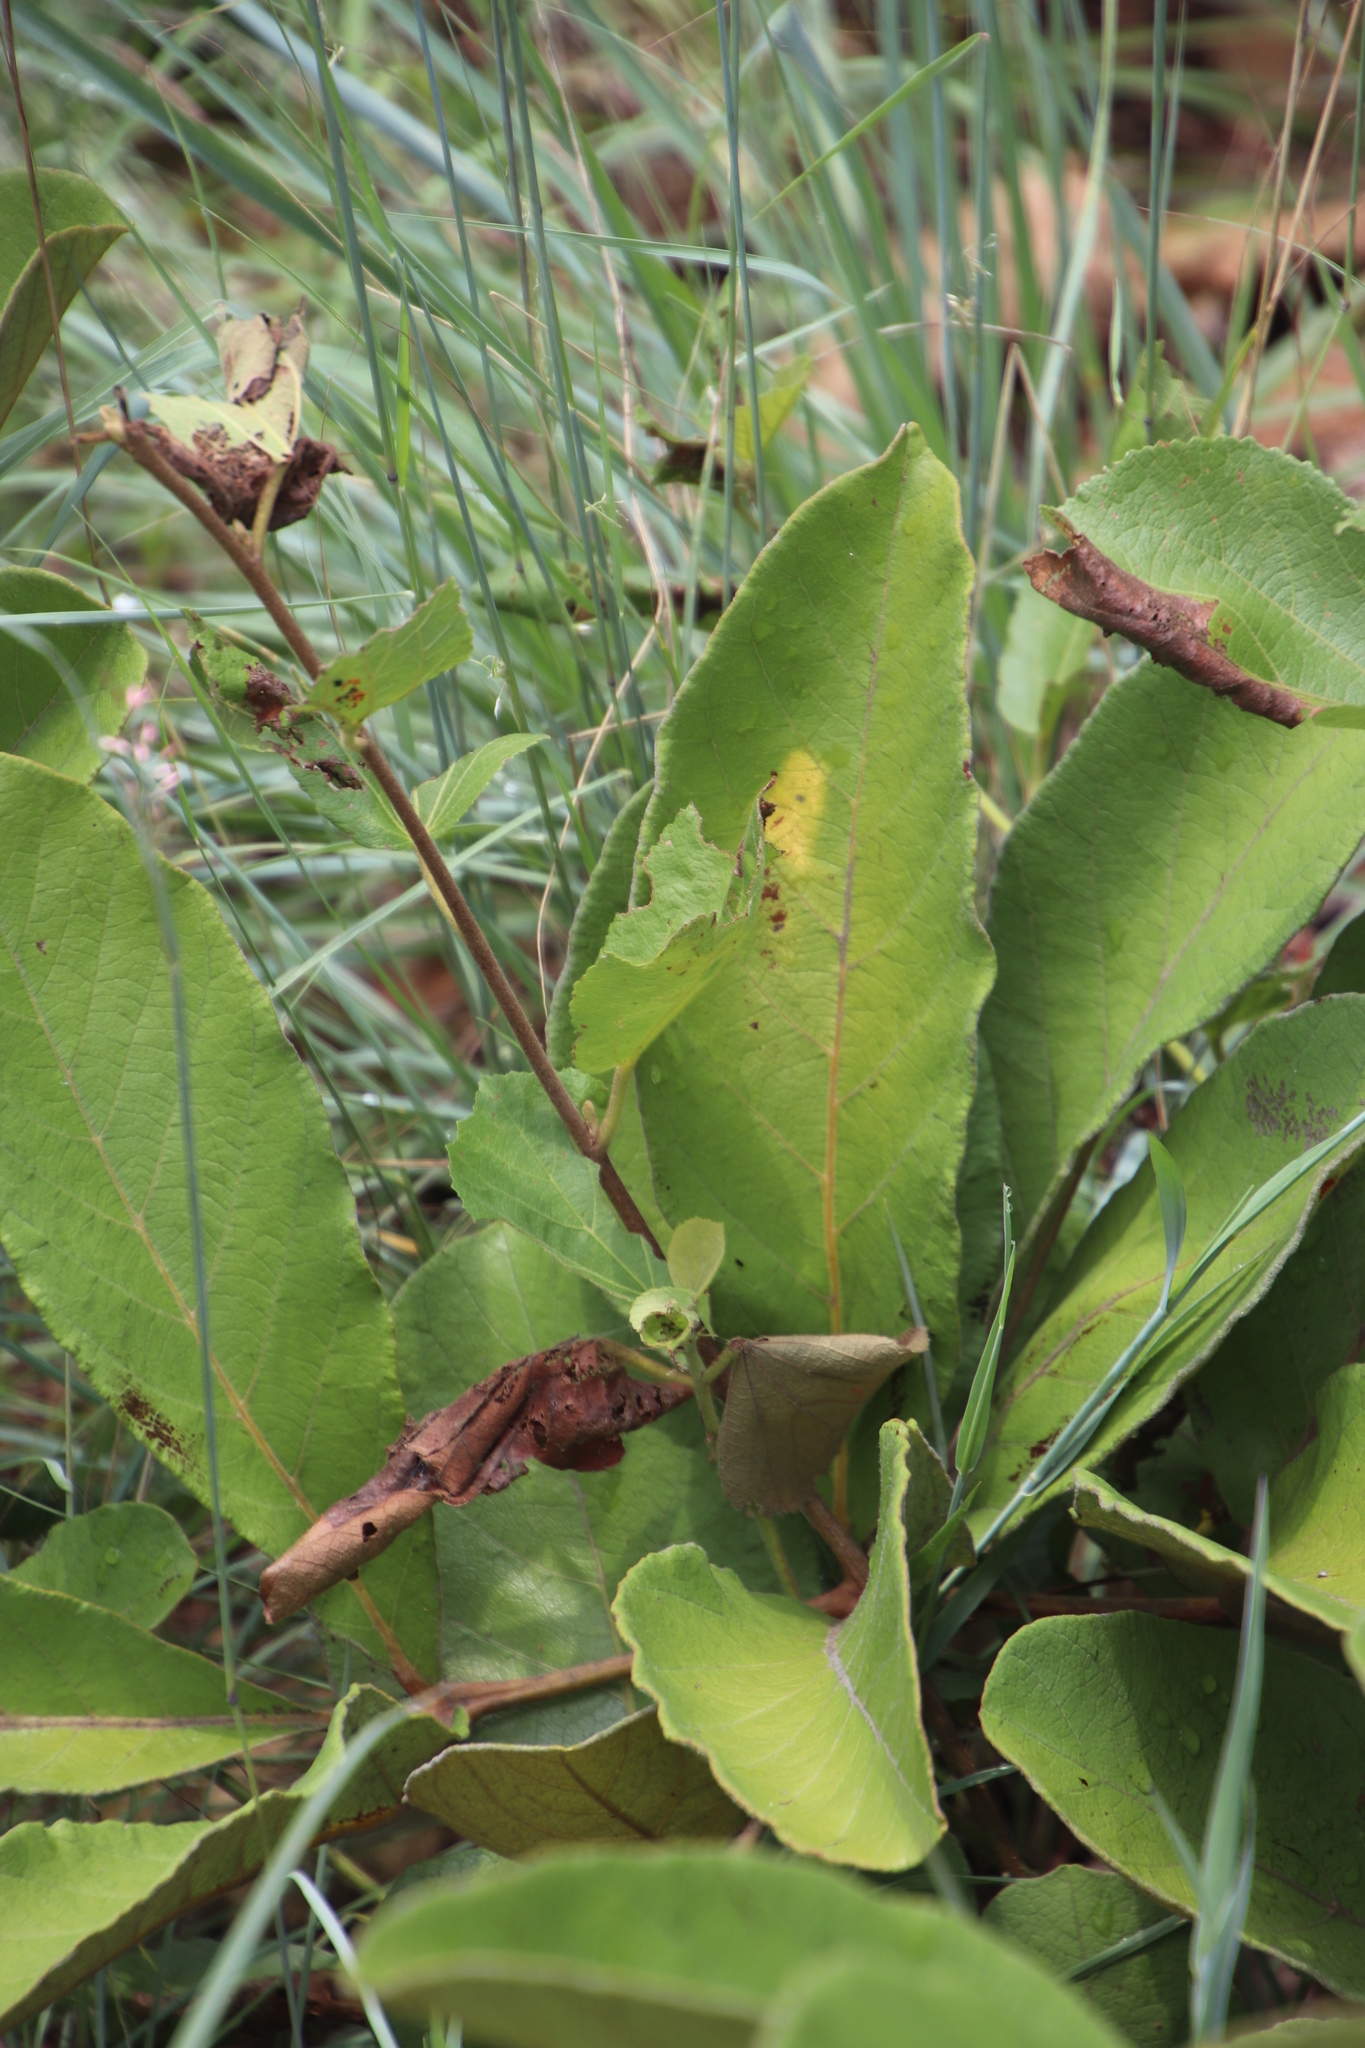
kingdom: Plantae
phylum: Tracheophyta
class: Magnoliopsida
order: Sapindales
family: Anacardiaceae
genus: Lannea
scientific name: Lannea edulis
